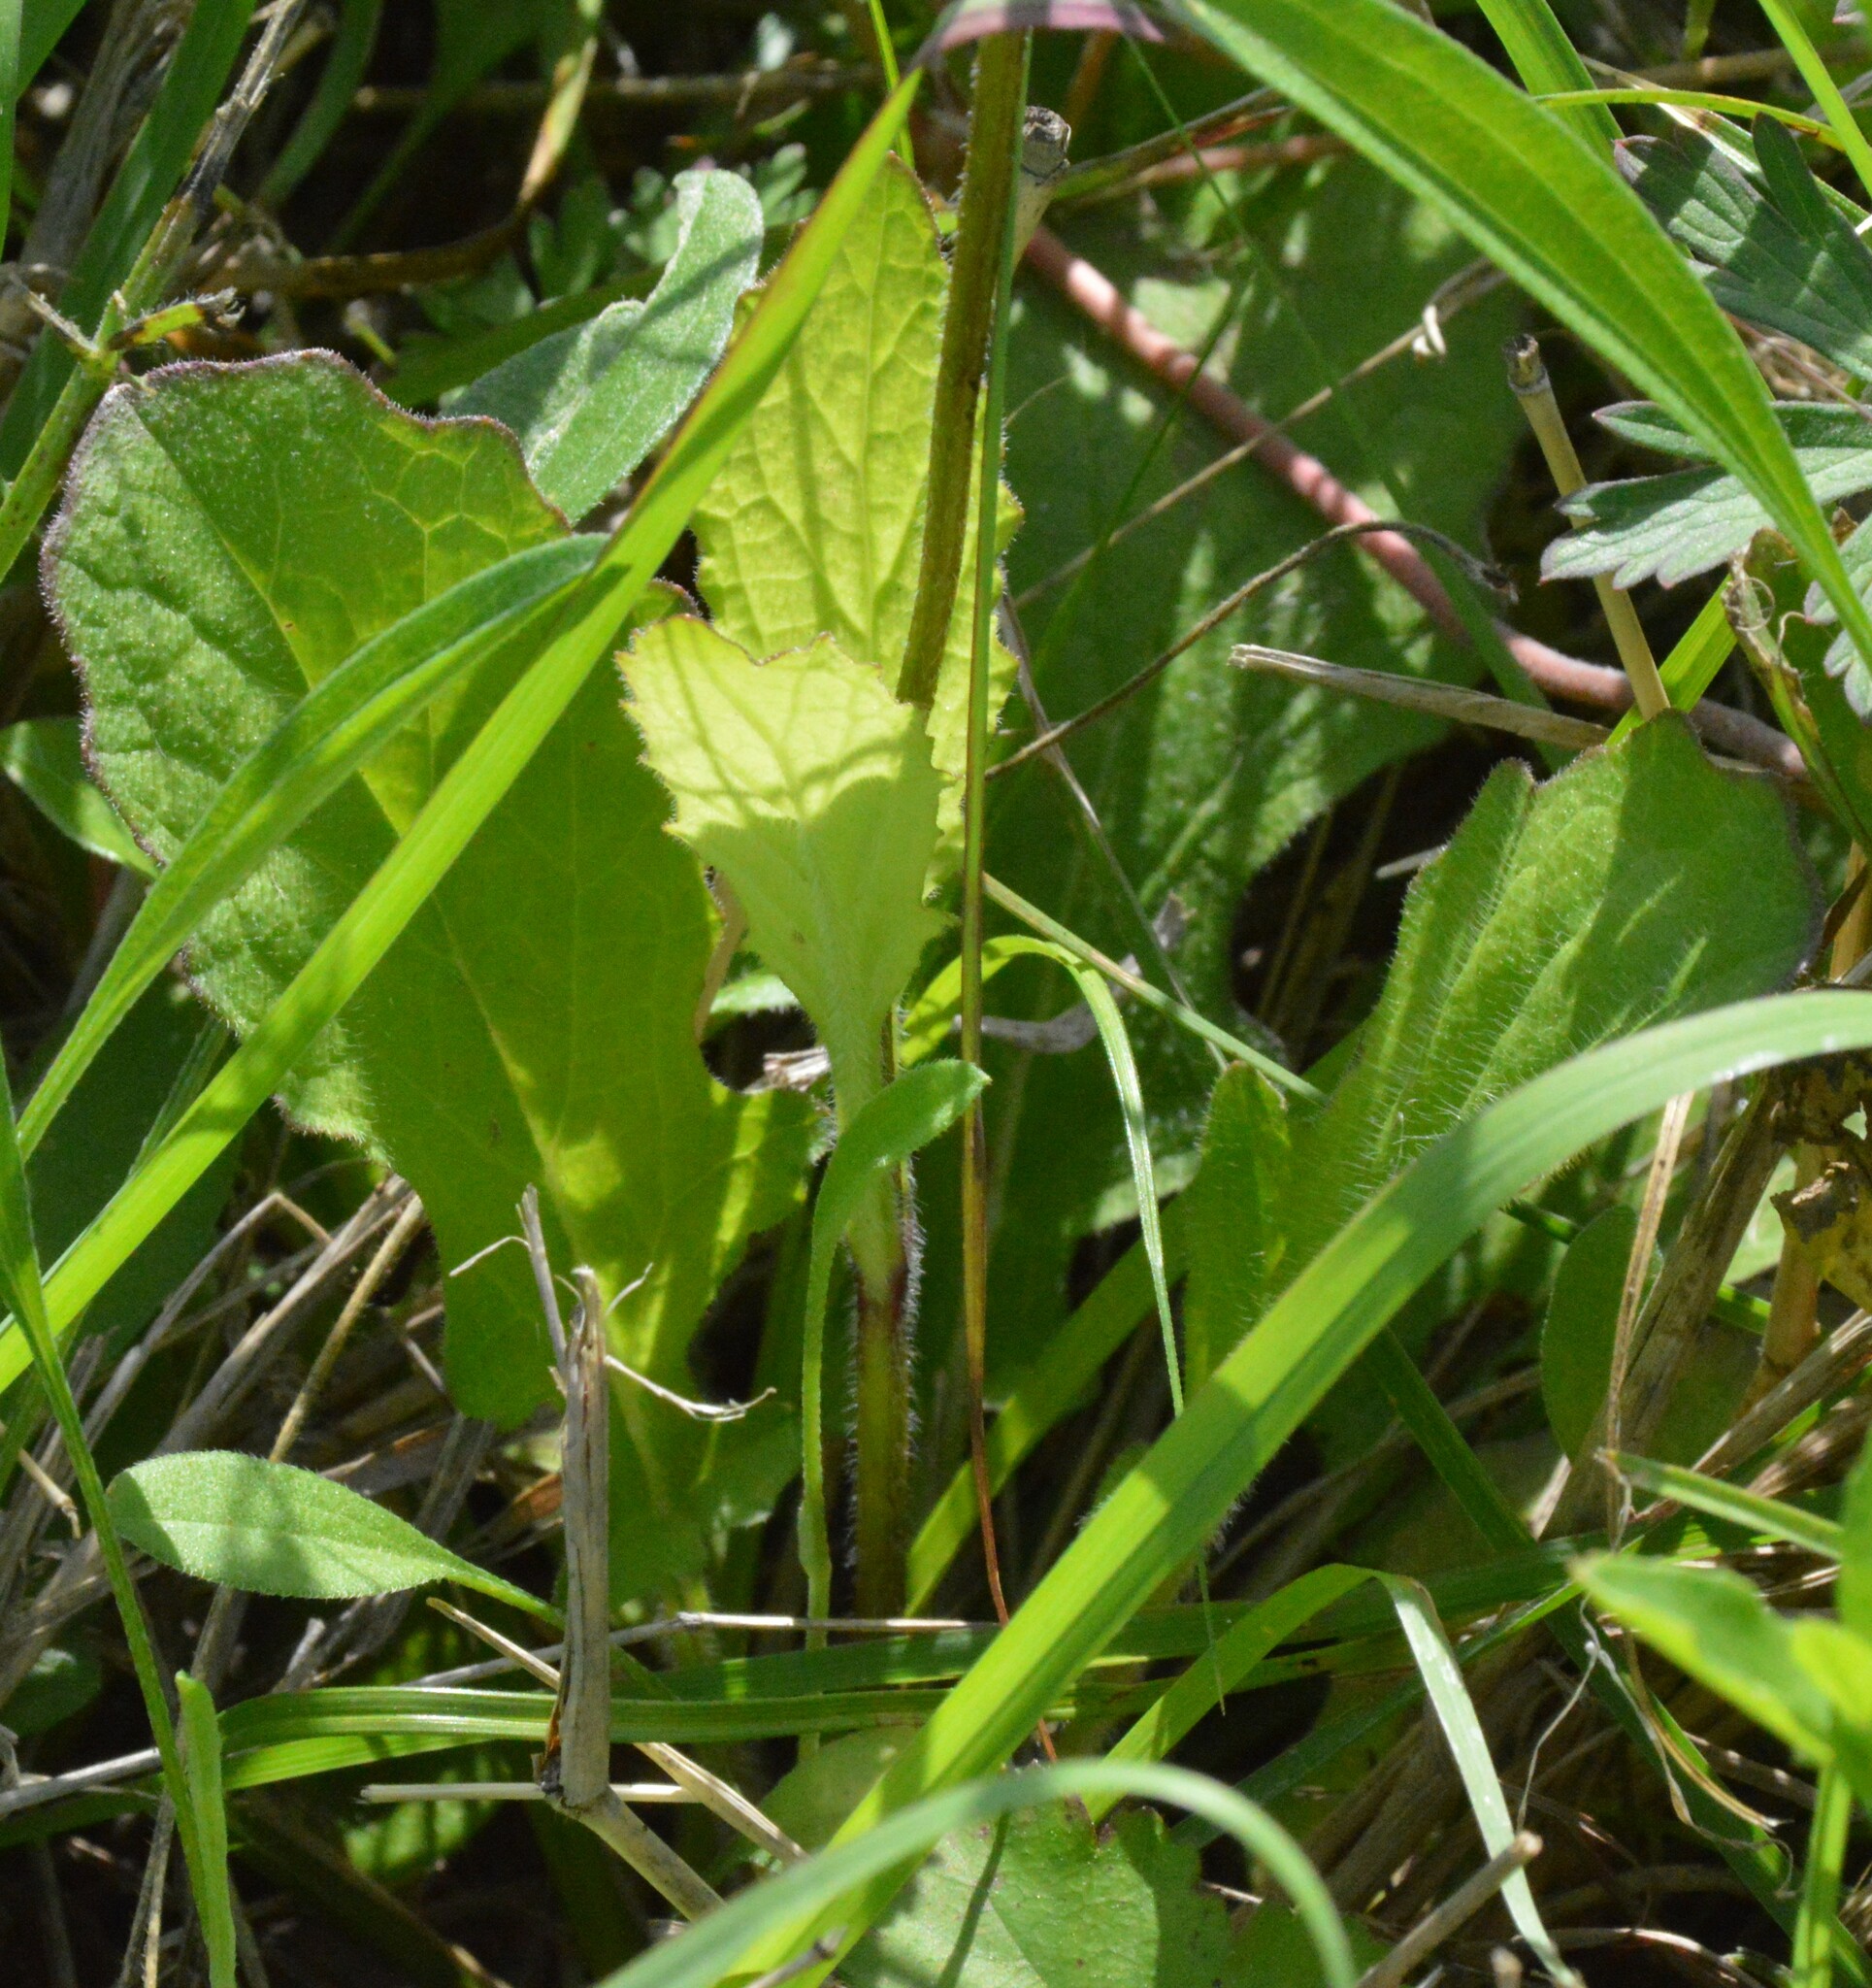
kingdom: Plantae
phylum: Tracheophyta
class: Magnoliopsida
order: Lamiales
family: Lamiaceae
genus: Salvia
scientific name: Salvia lyrata
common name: Cancerweed
